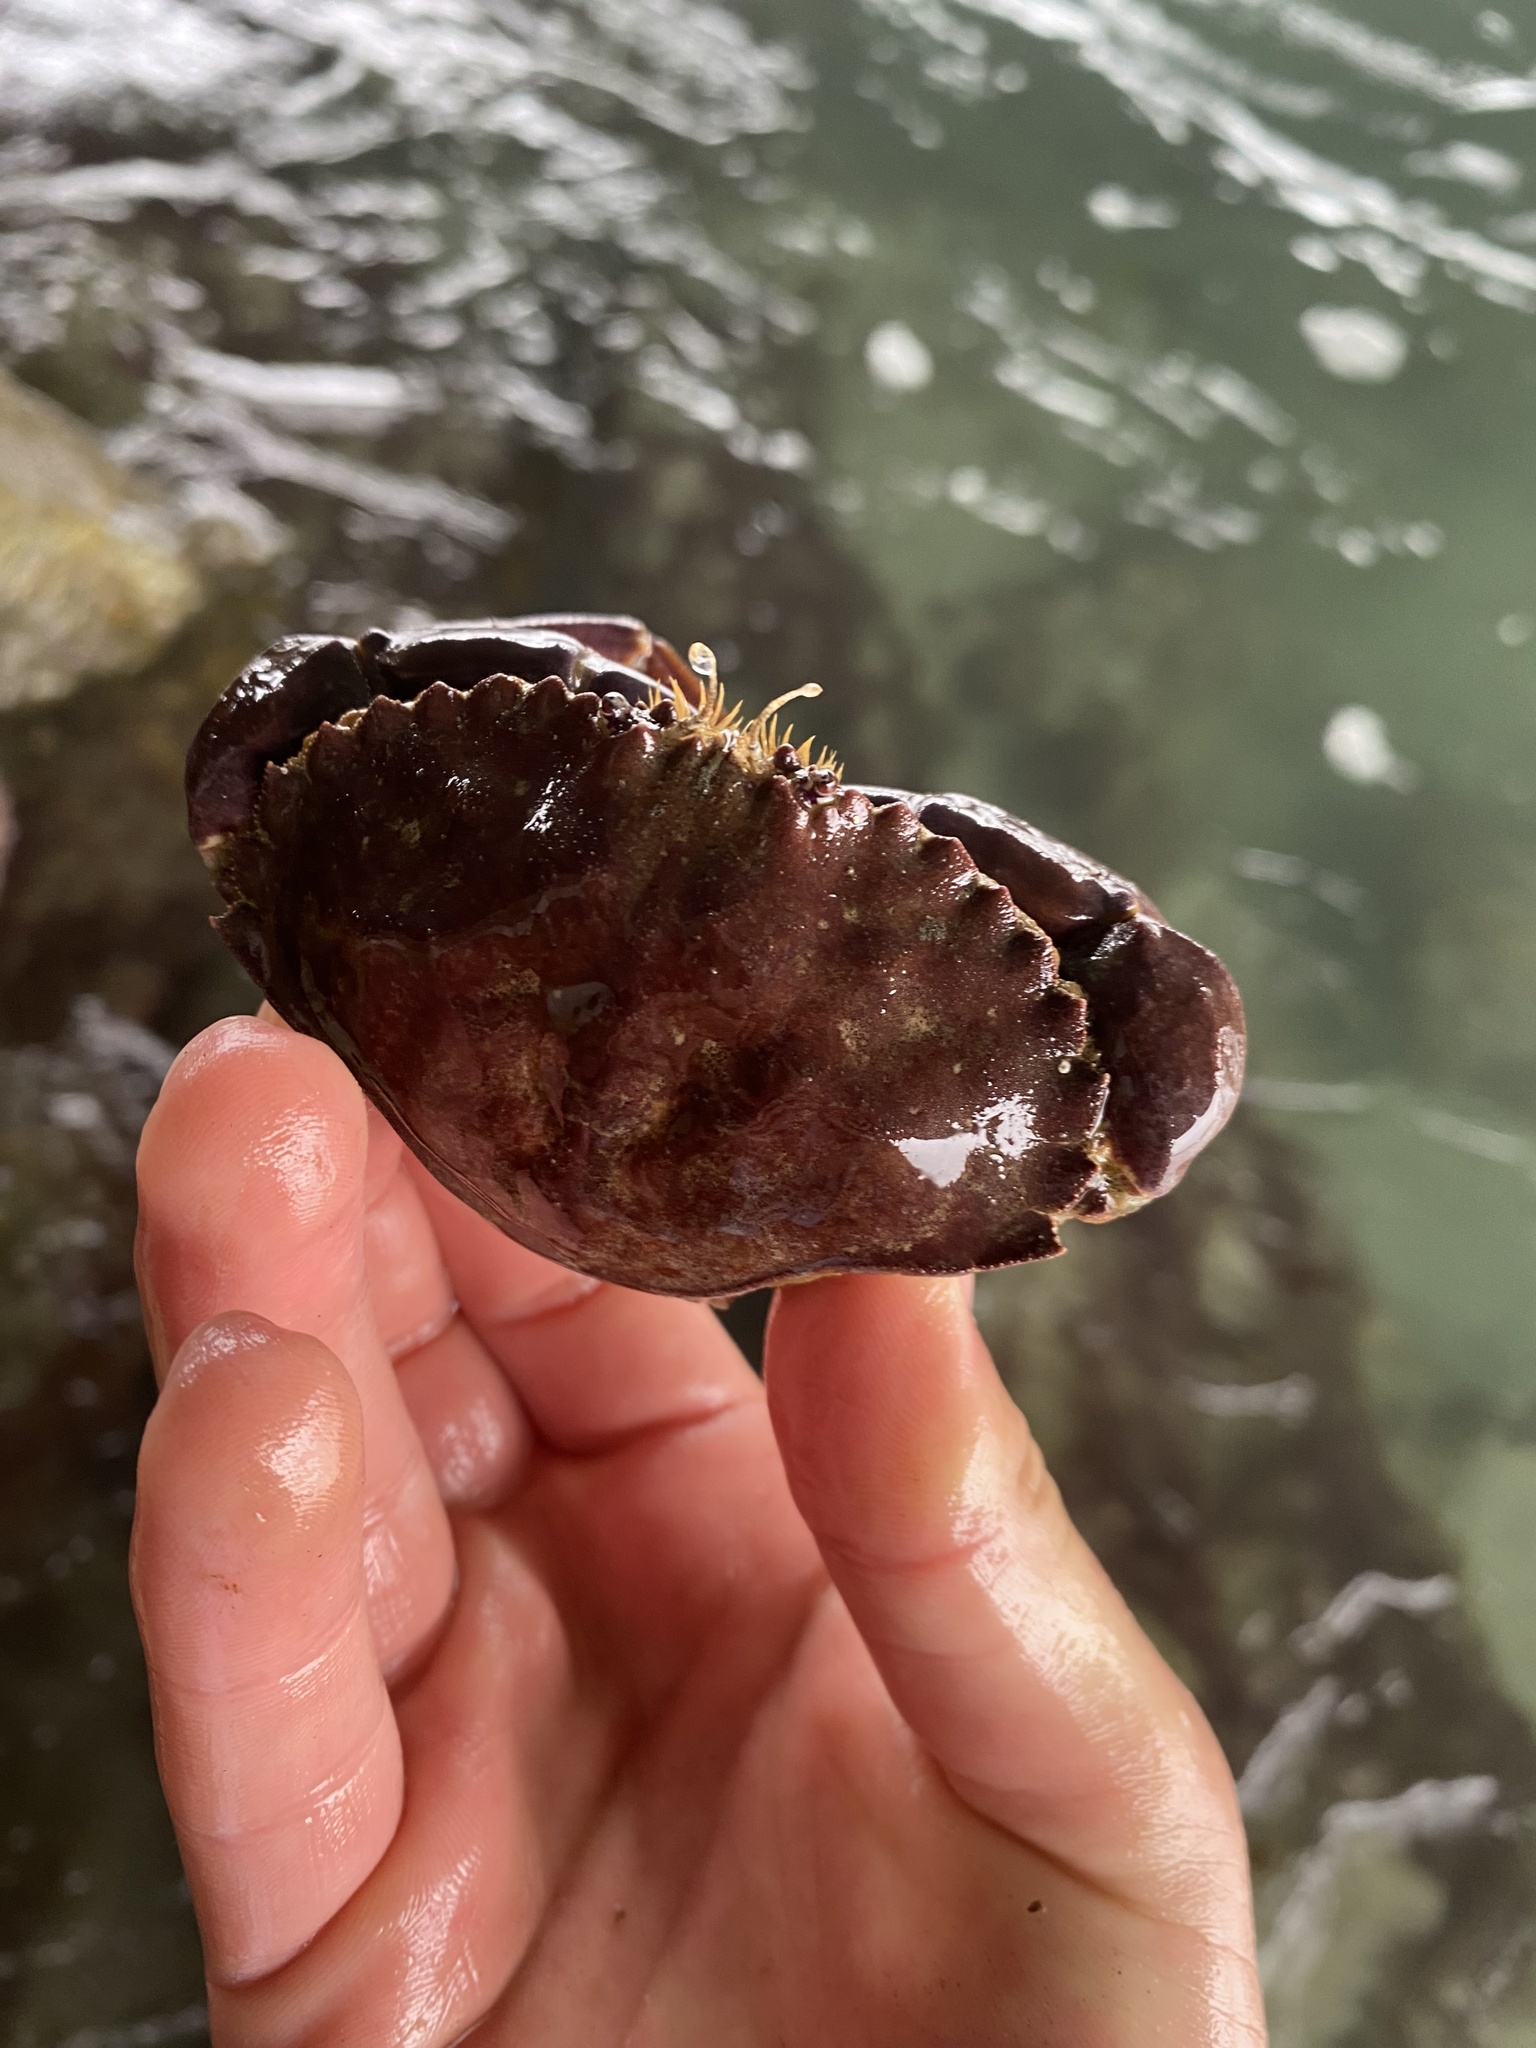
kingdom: Animalia
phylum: Arthropoda
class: Malacostraca
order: Decapoda
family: Cancridae
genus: Metacarcinus
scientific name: Metacarcinus anthonyi
